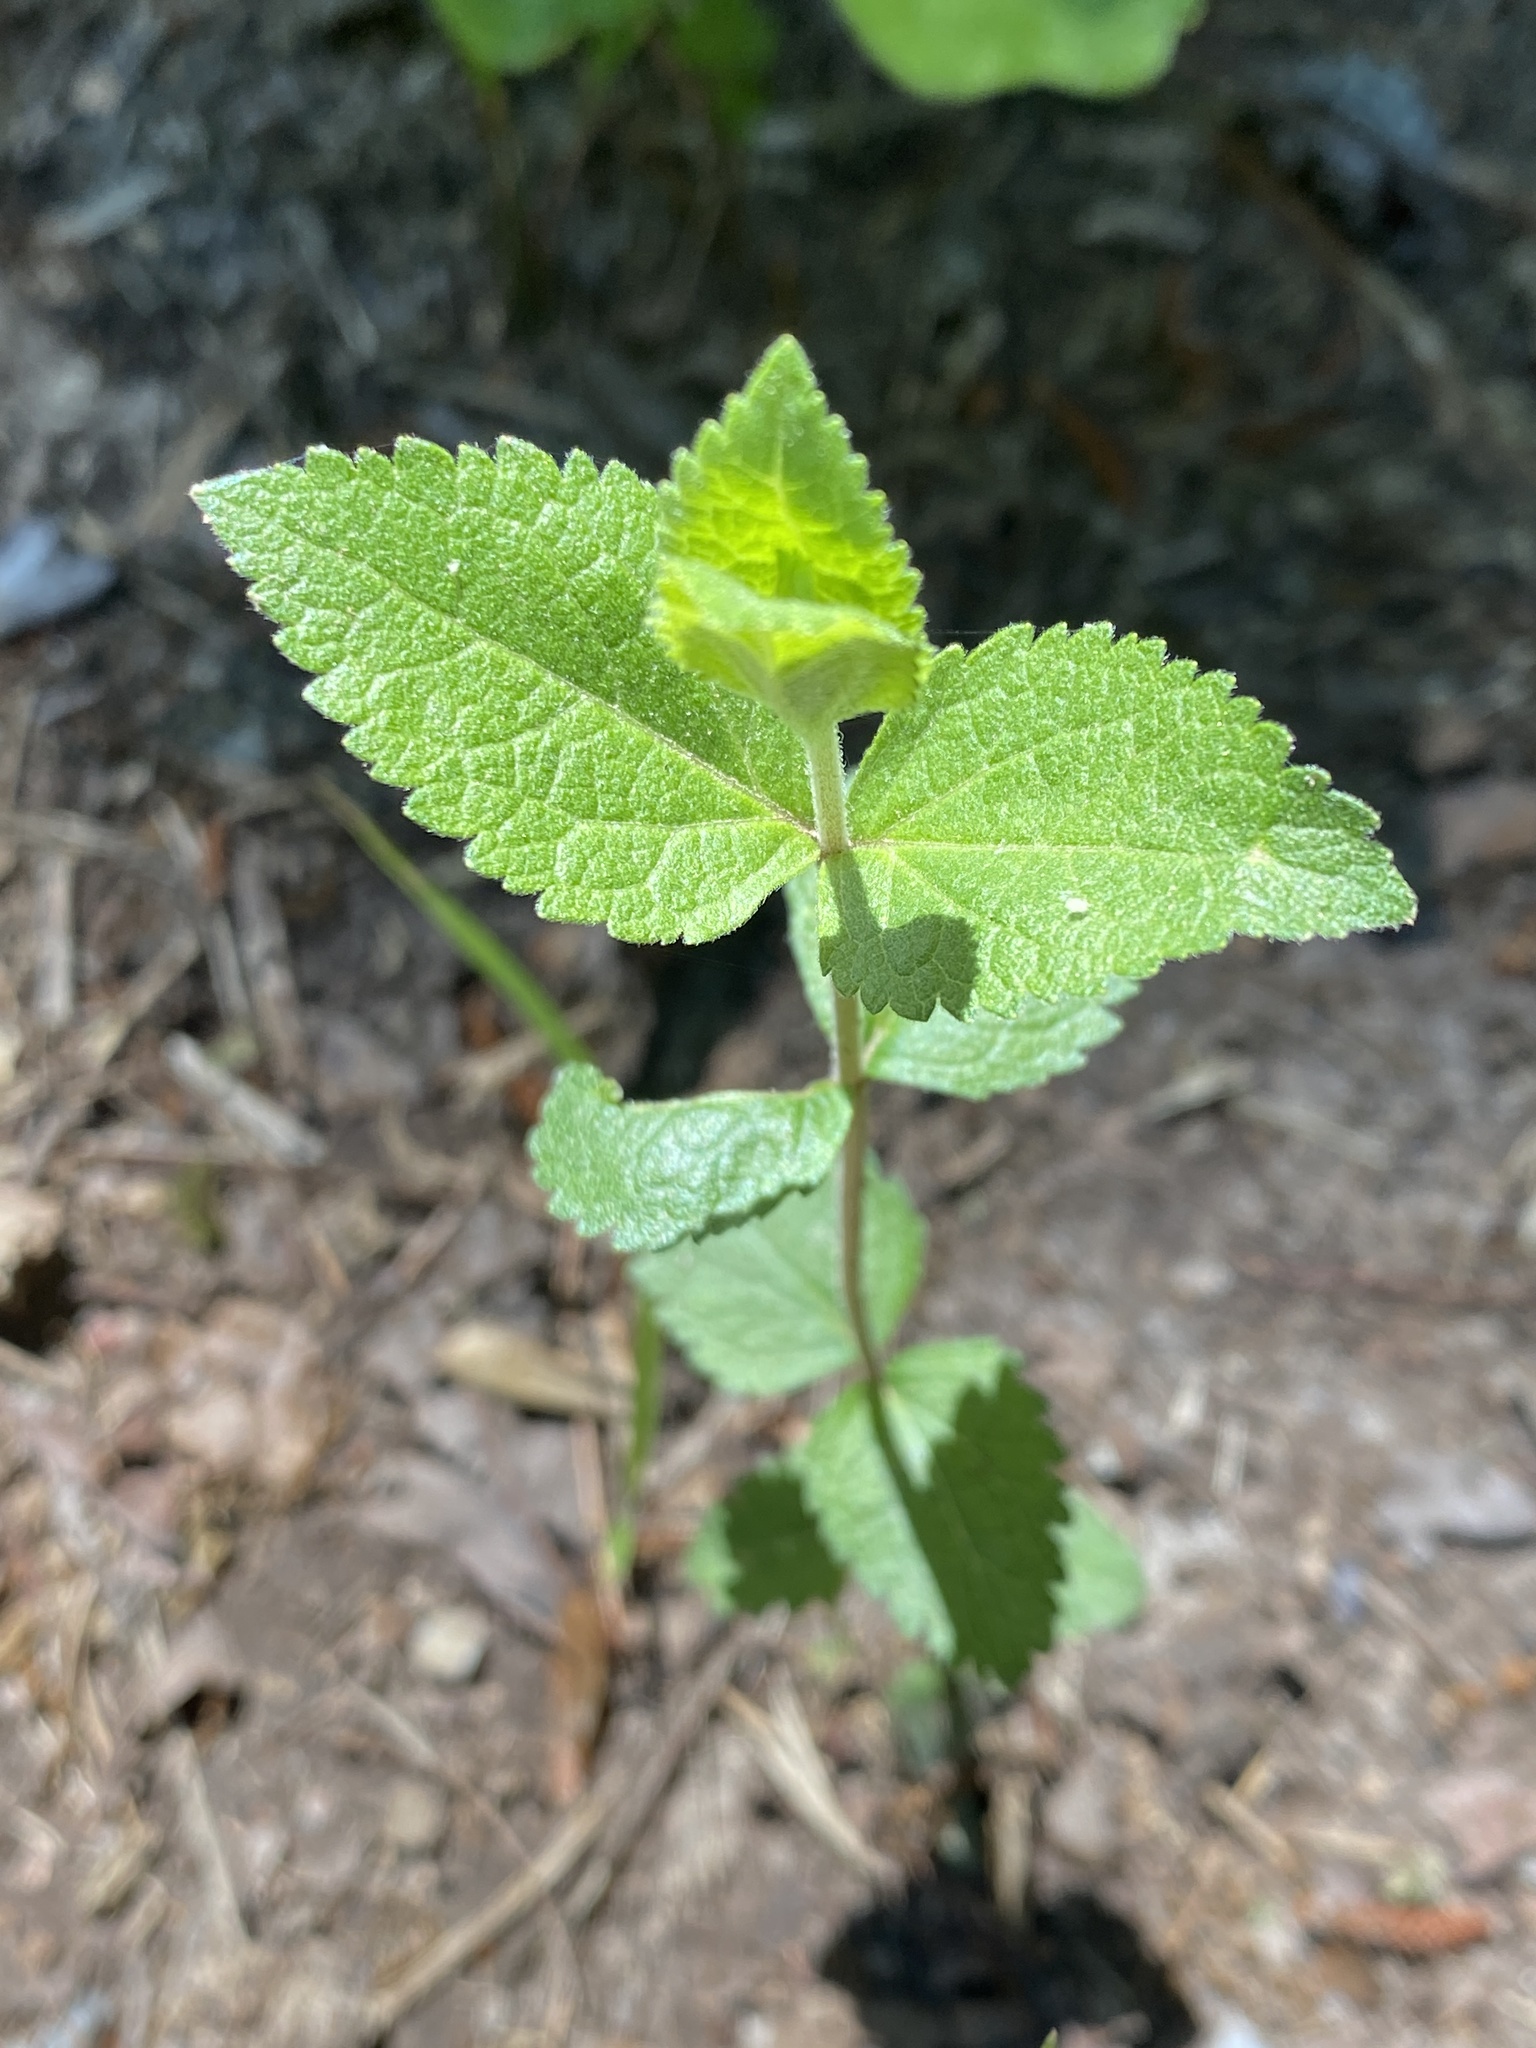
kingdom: Plantae
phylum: Tracheophyta
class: Magnoliopsida
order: Asterales
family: Asteraceae
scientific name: Asteraceae
